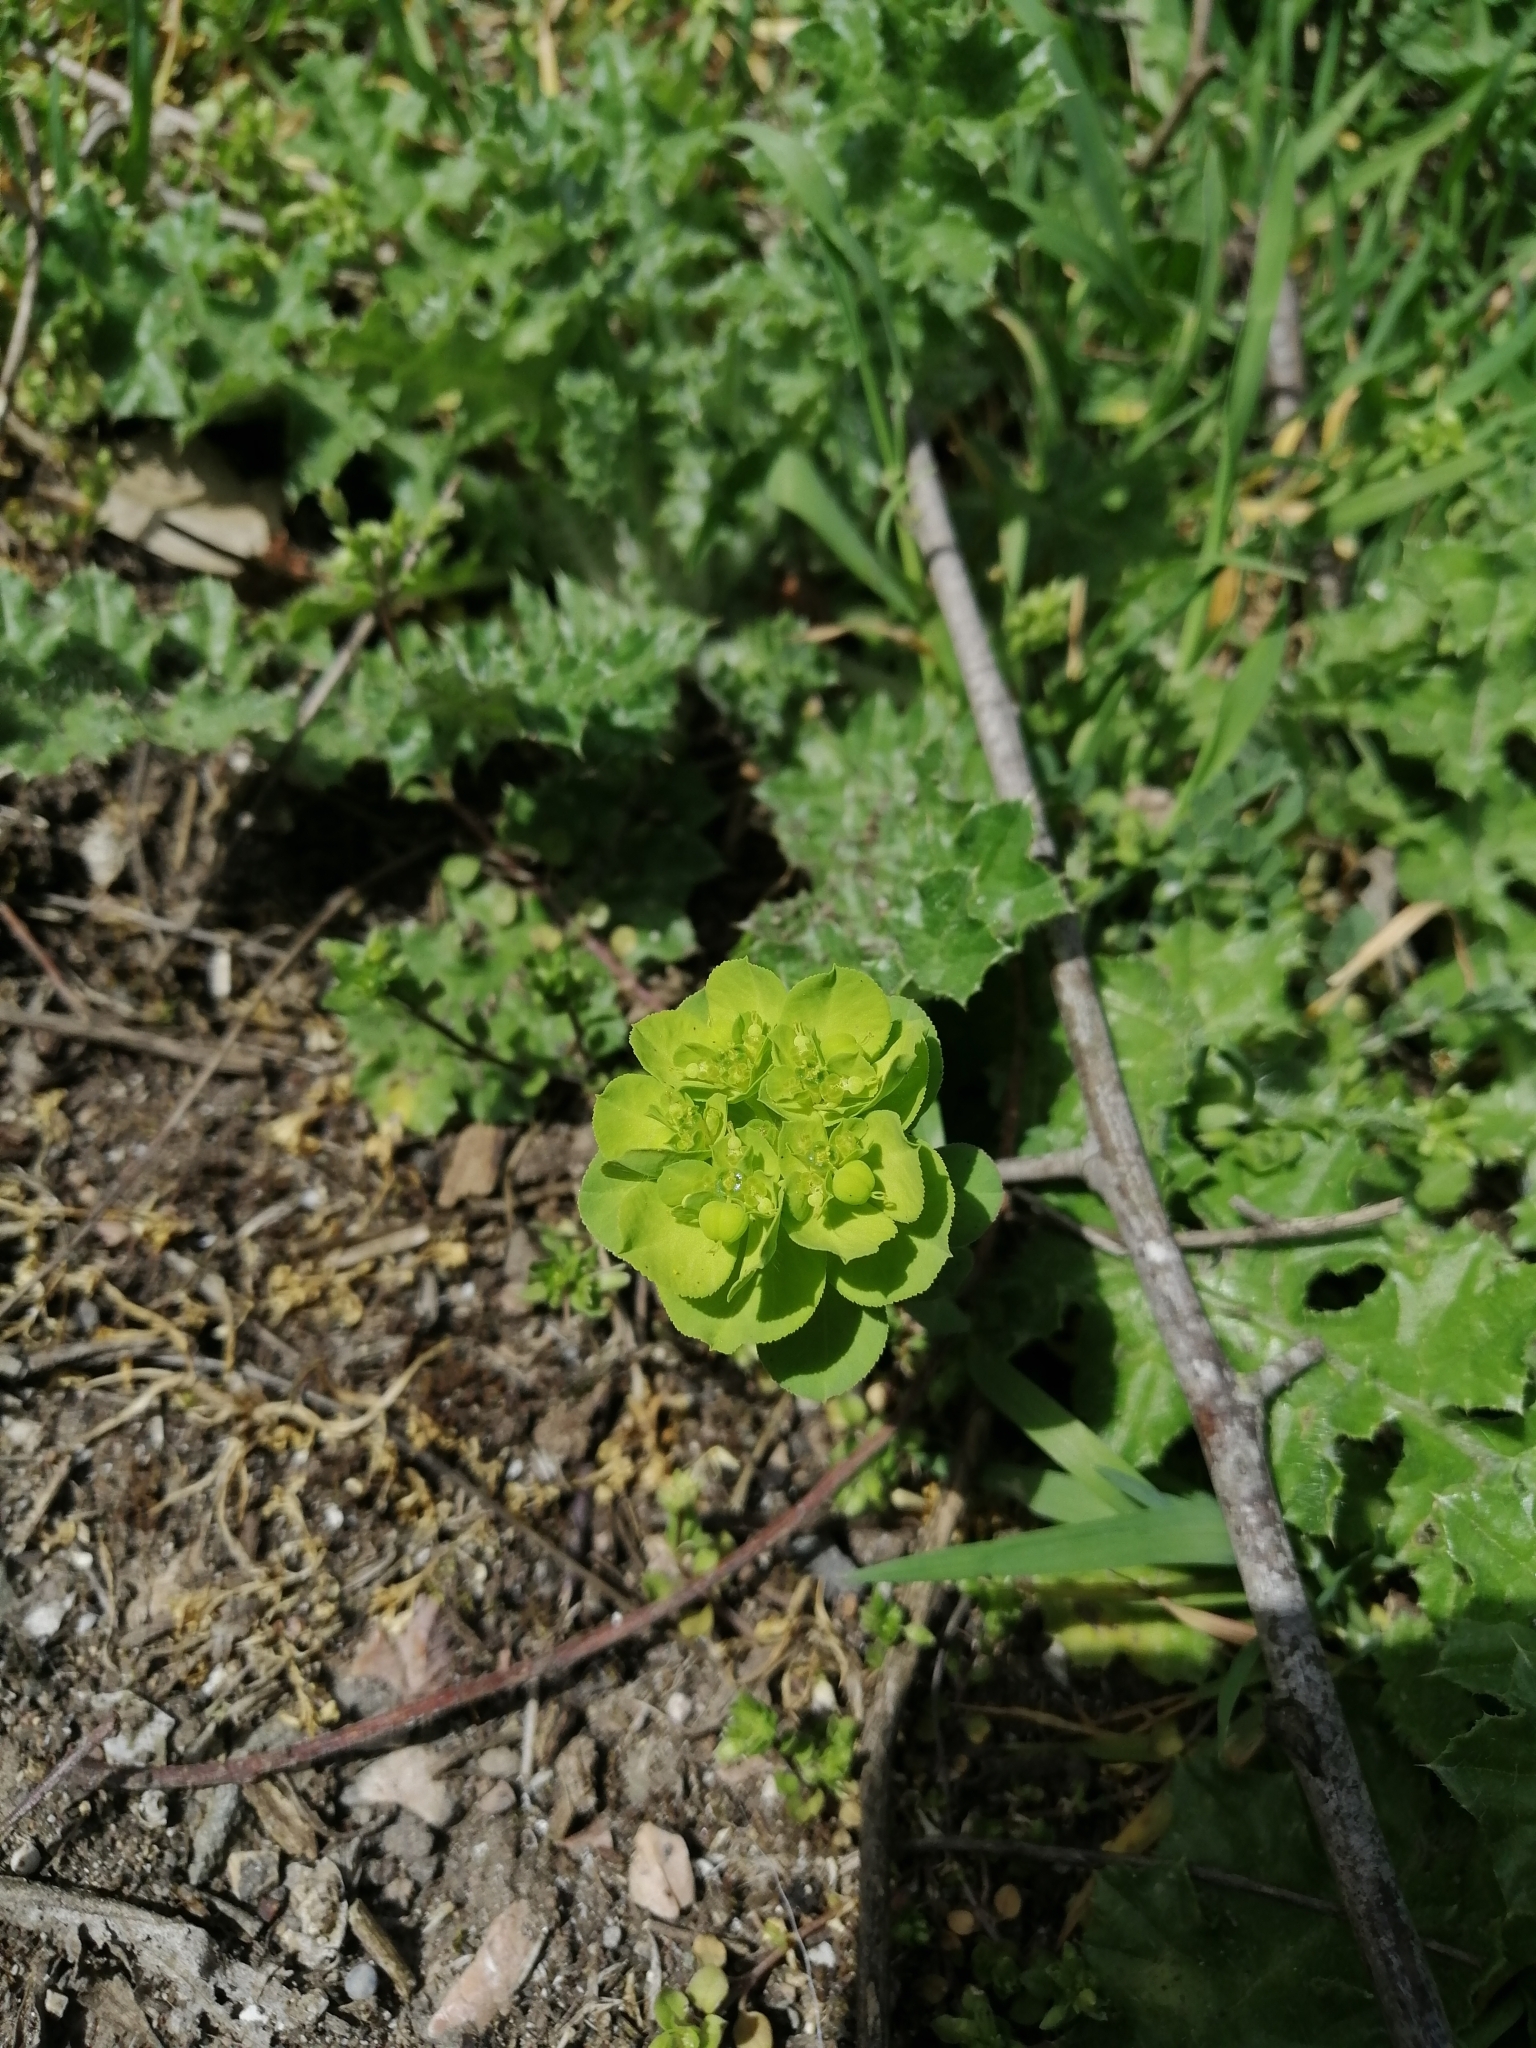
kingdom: Plantae
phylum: Tracheophyta
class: Magnoliopsida
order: Malpighiales
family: Euphorbiaceae
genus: Euphorbia
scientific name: Euphorbia helioscopia
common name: Sun spurge
